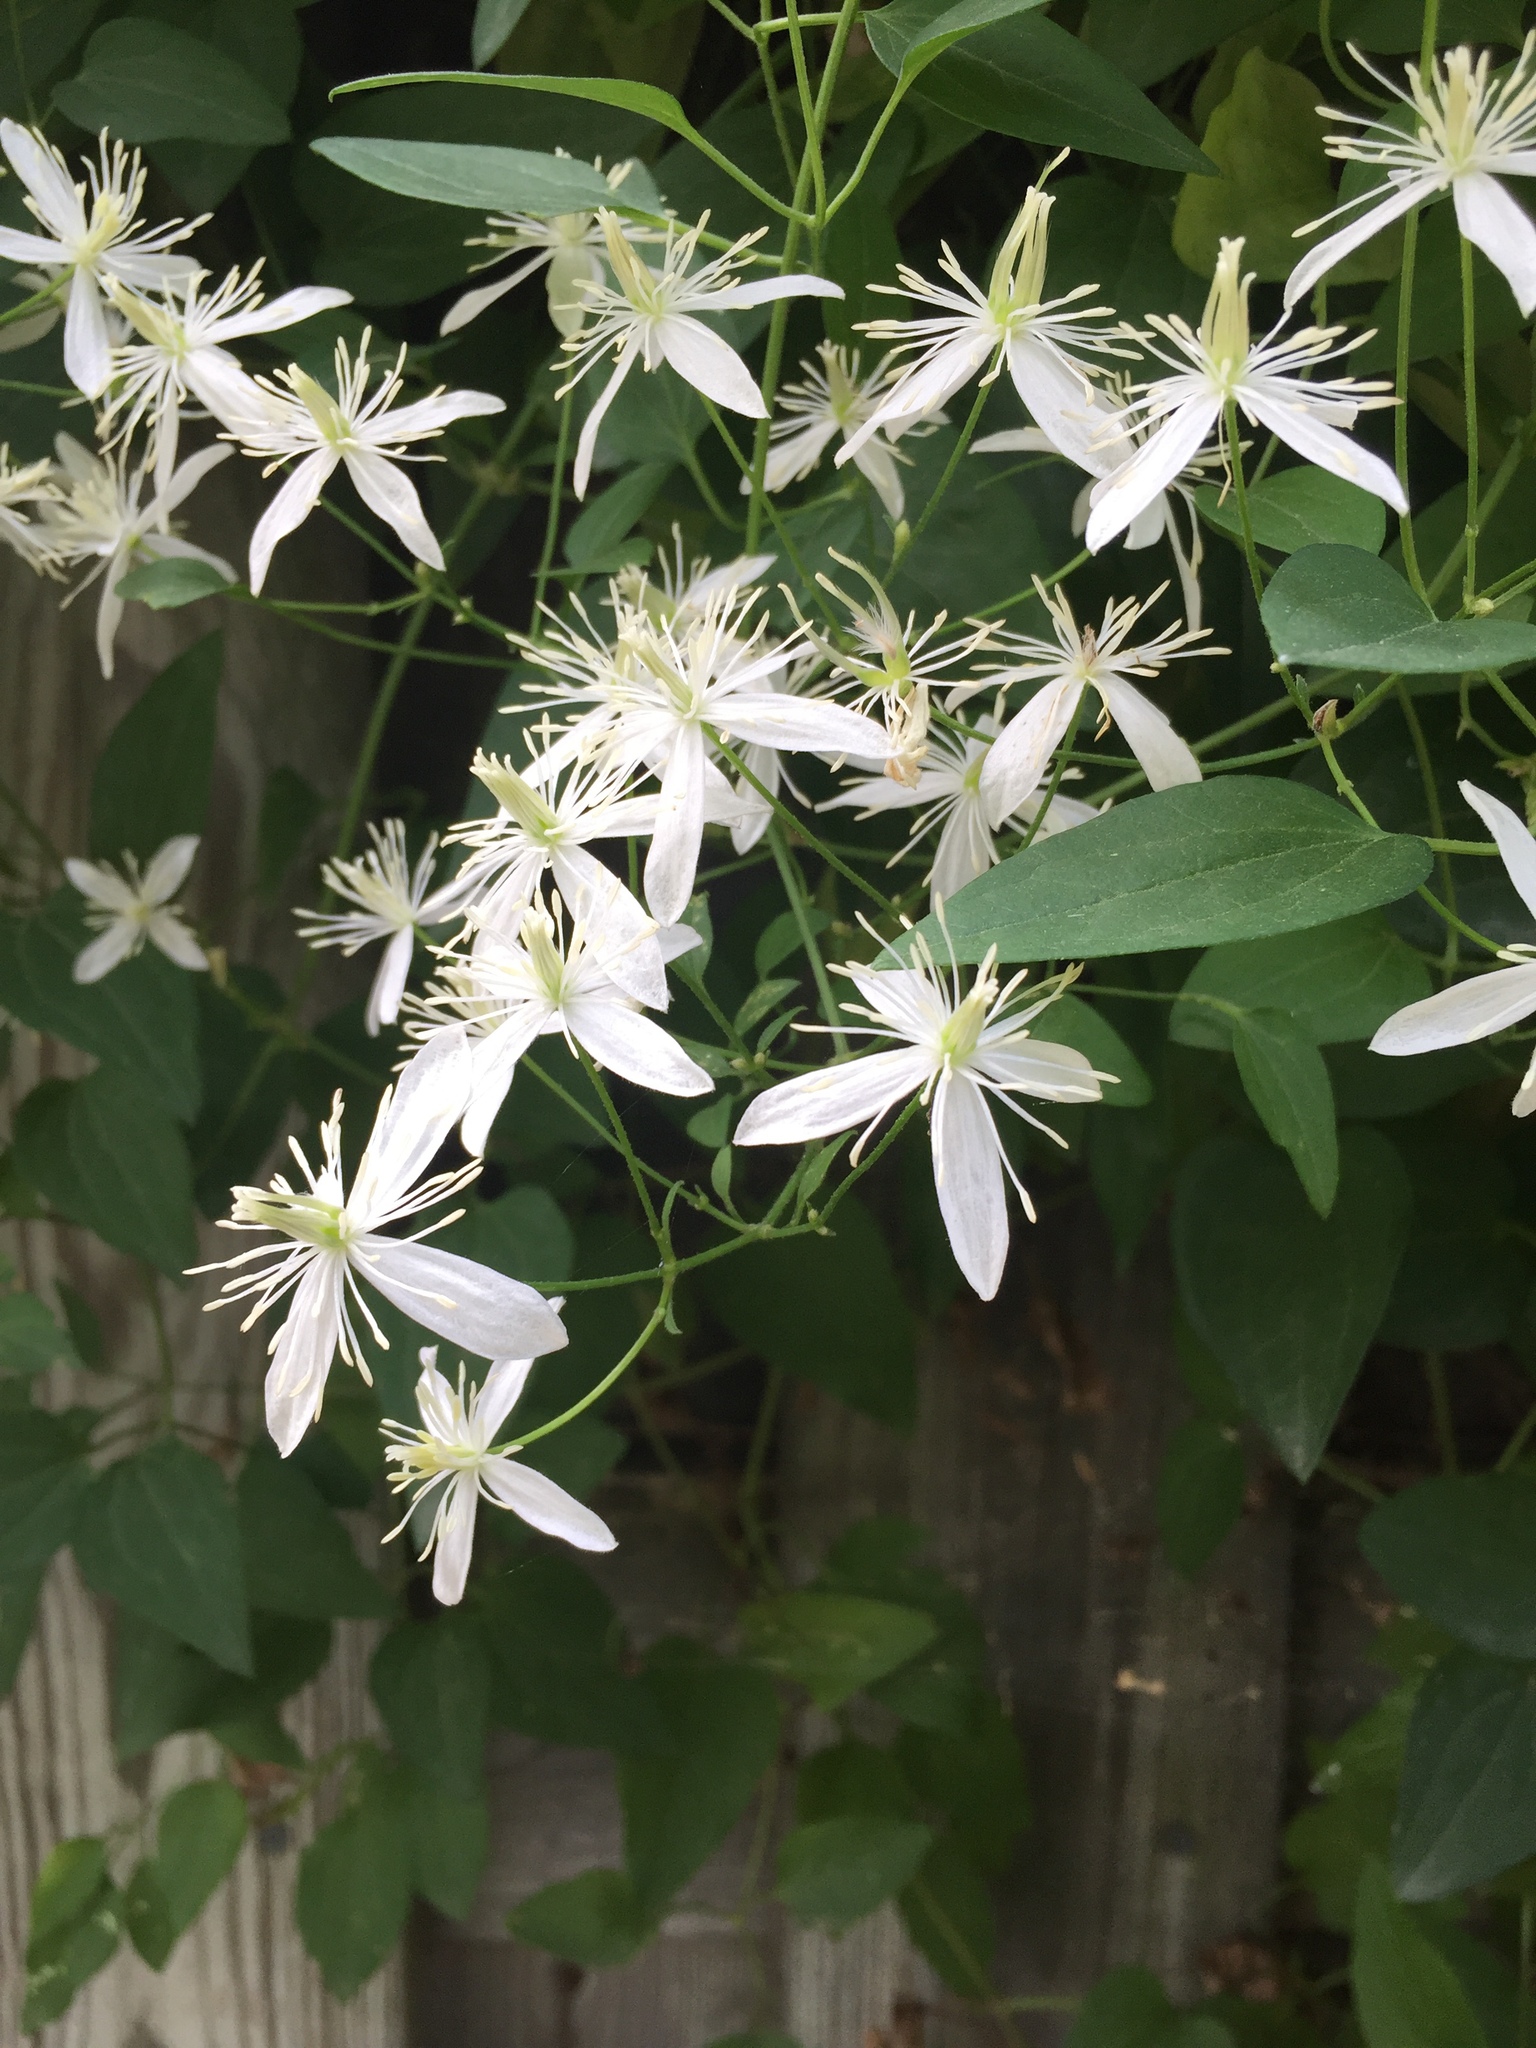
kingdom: Plantae
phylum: Tracheophyta
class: Magnoliopsida
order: Ranunculales
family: Ranunculaceae
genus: Clematis
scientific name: Clematis terniflora
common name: Sweet autumn clematis
